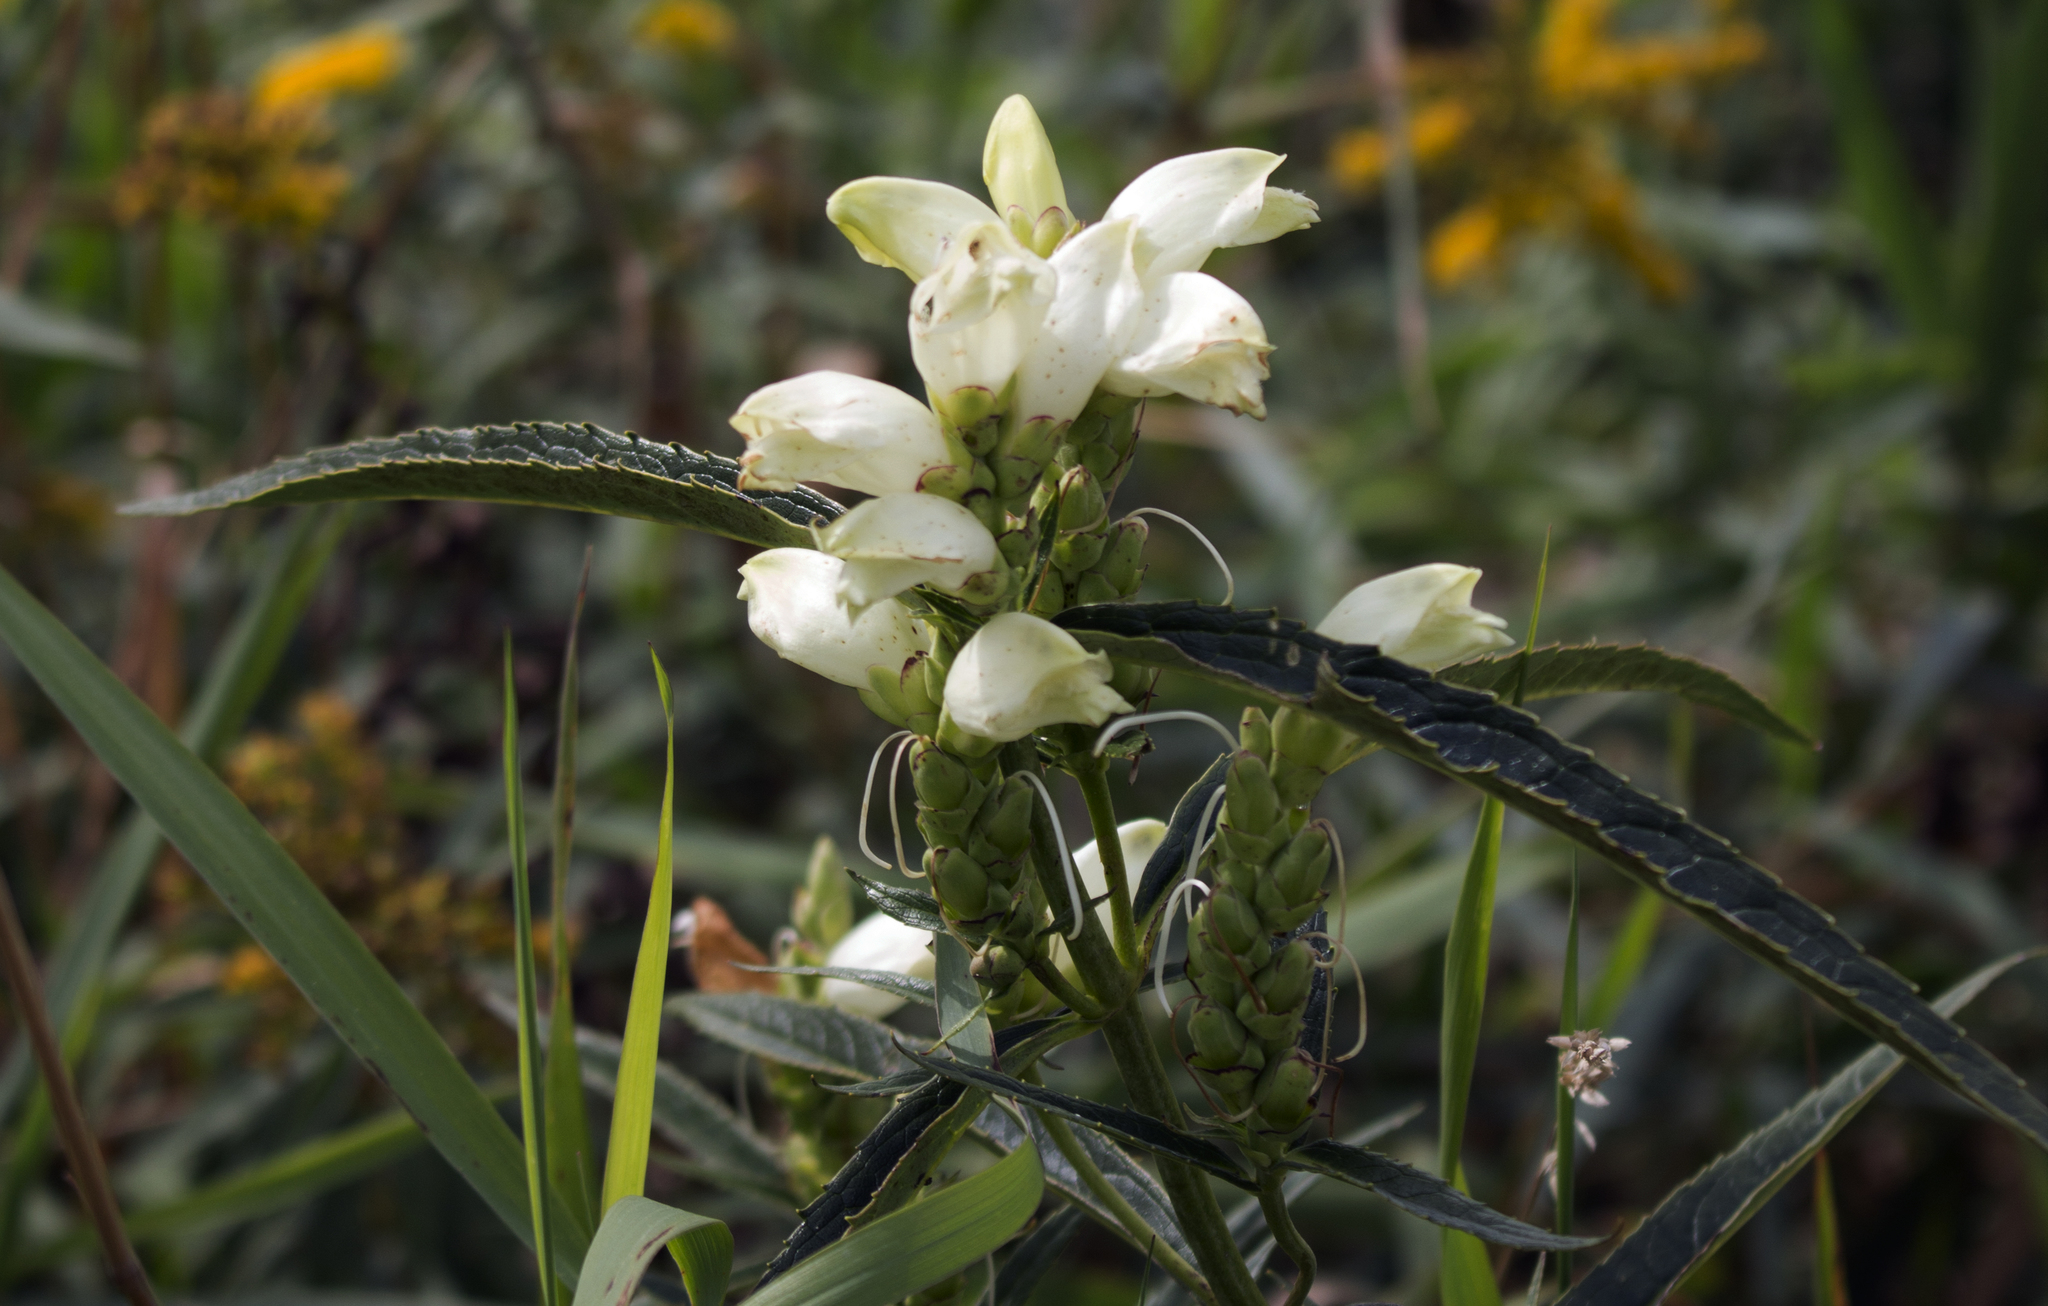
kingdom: Plantae
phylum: Tracheophyta
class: Magnoliopsida
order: Lamiales
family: Plantaginaceae
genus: Chelone
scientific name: Chelone glabra
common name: Snakehead
